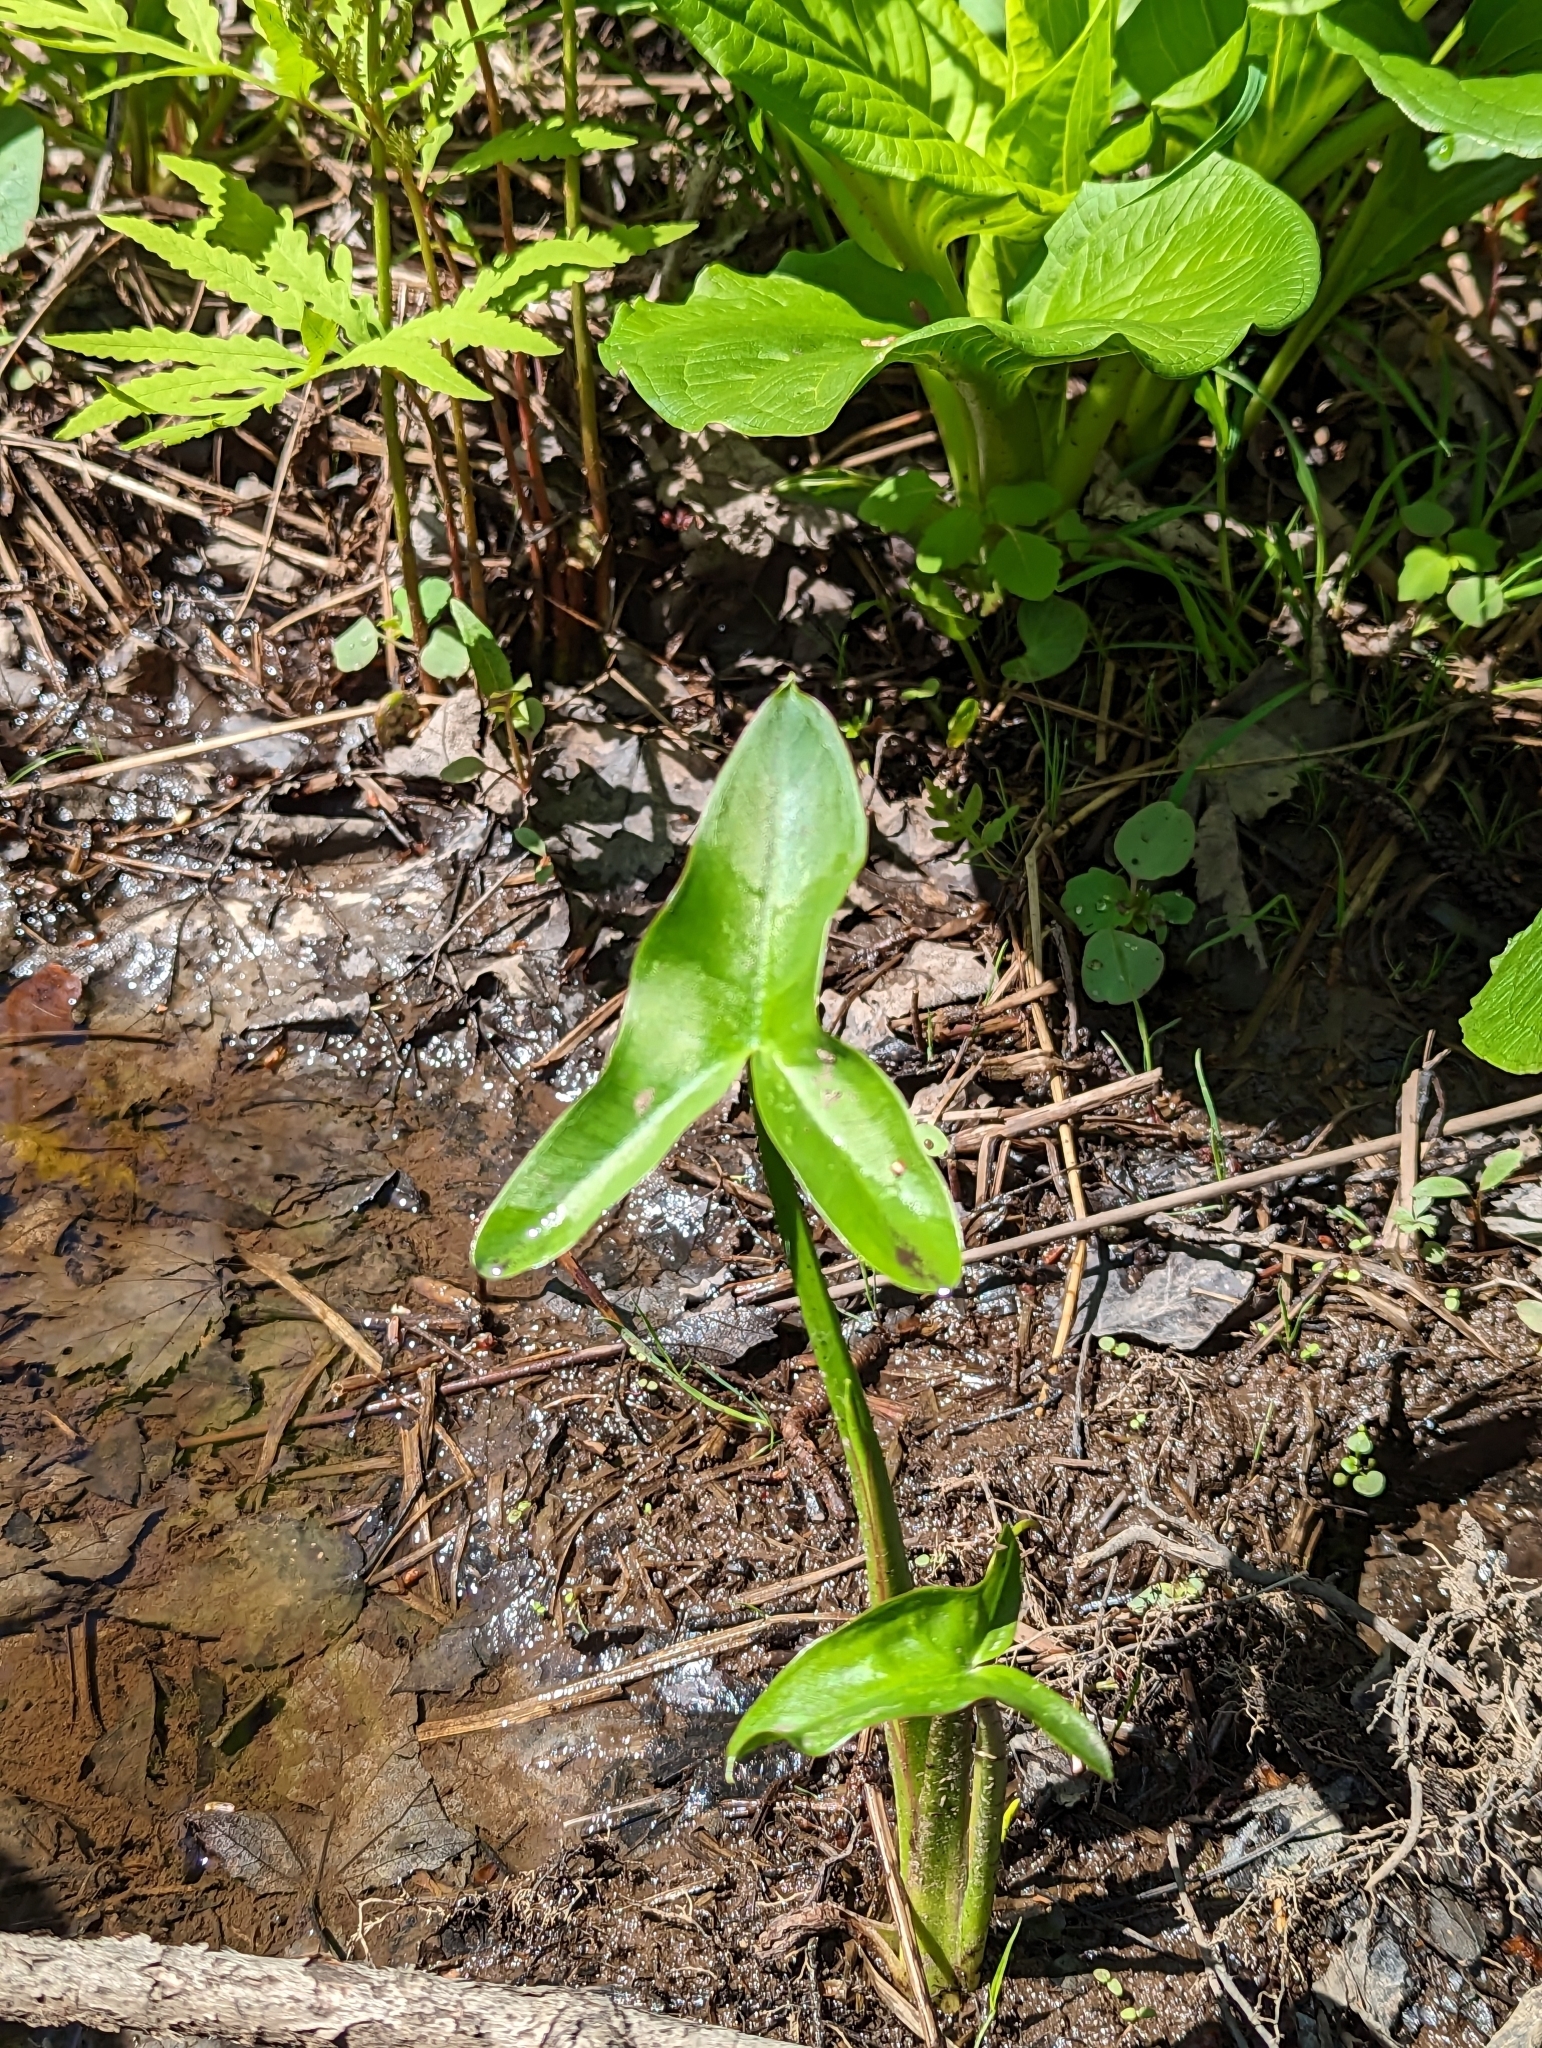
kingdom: Plantae
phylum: Tracheophyta
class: Liliopsida
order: Alismatales
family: Araceae
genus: Peltandra
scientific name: Peltandra virginica
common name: Arrow arum
